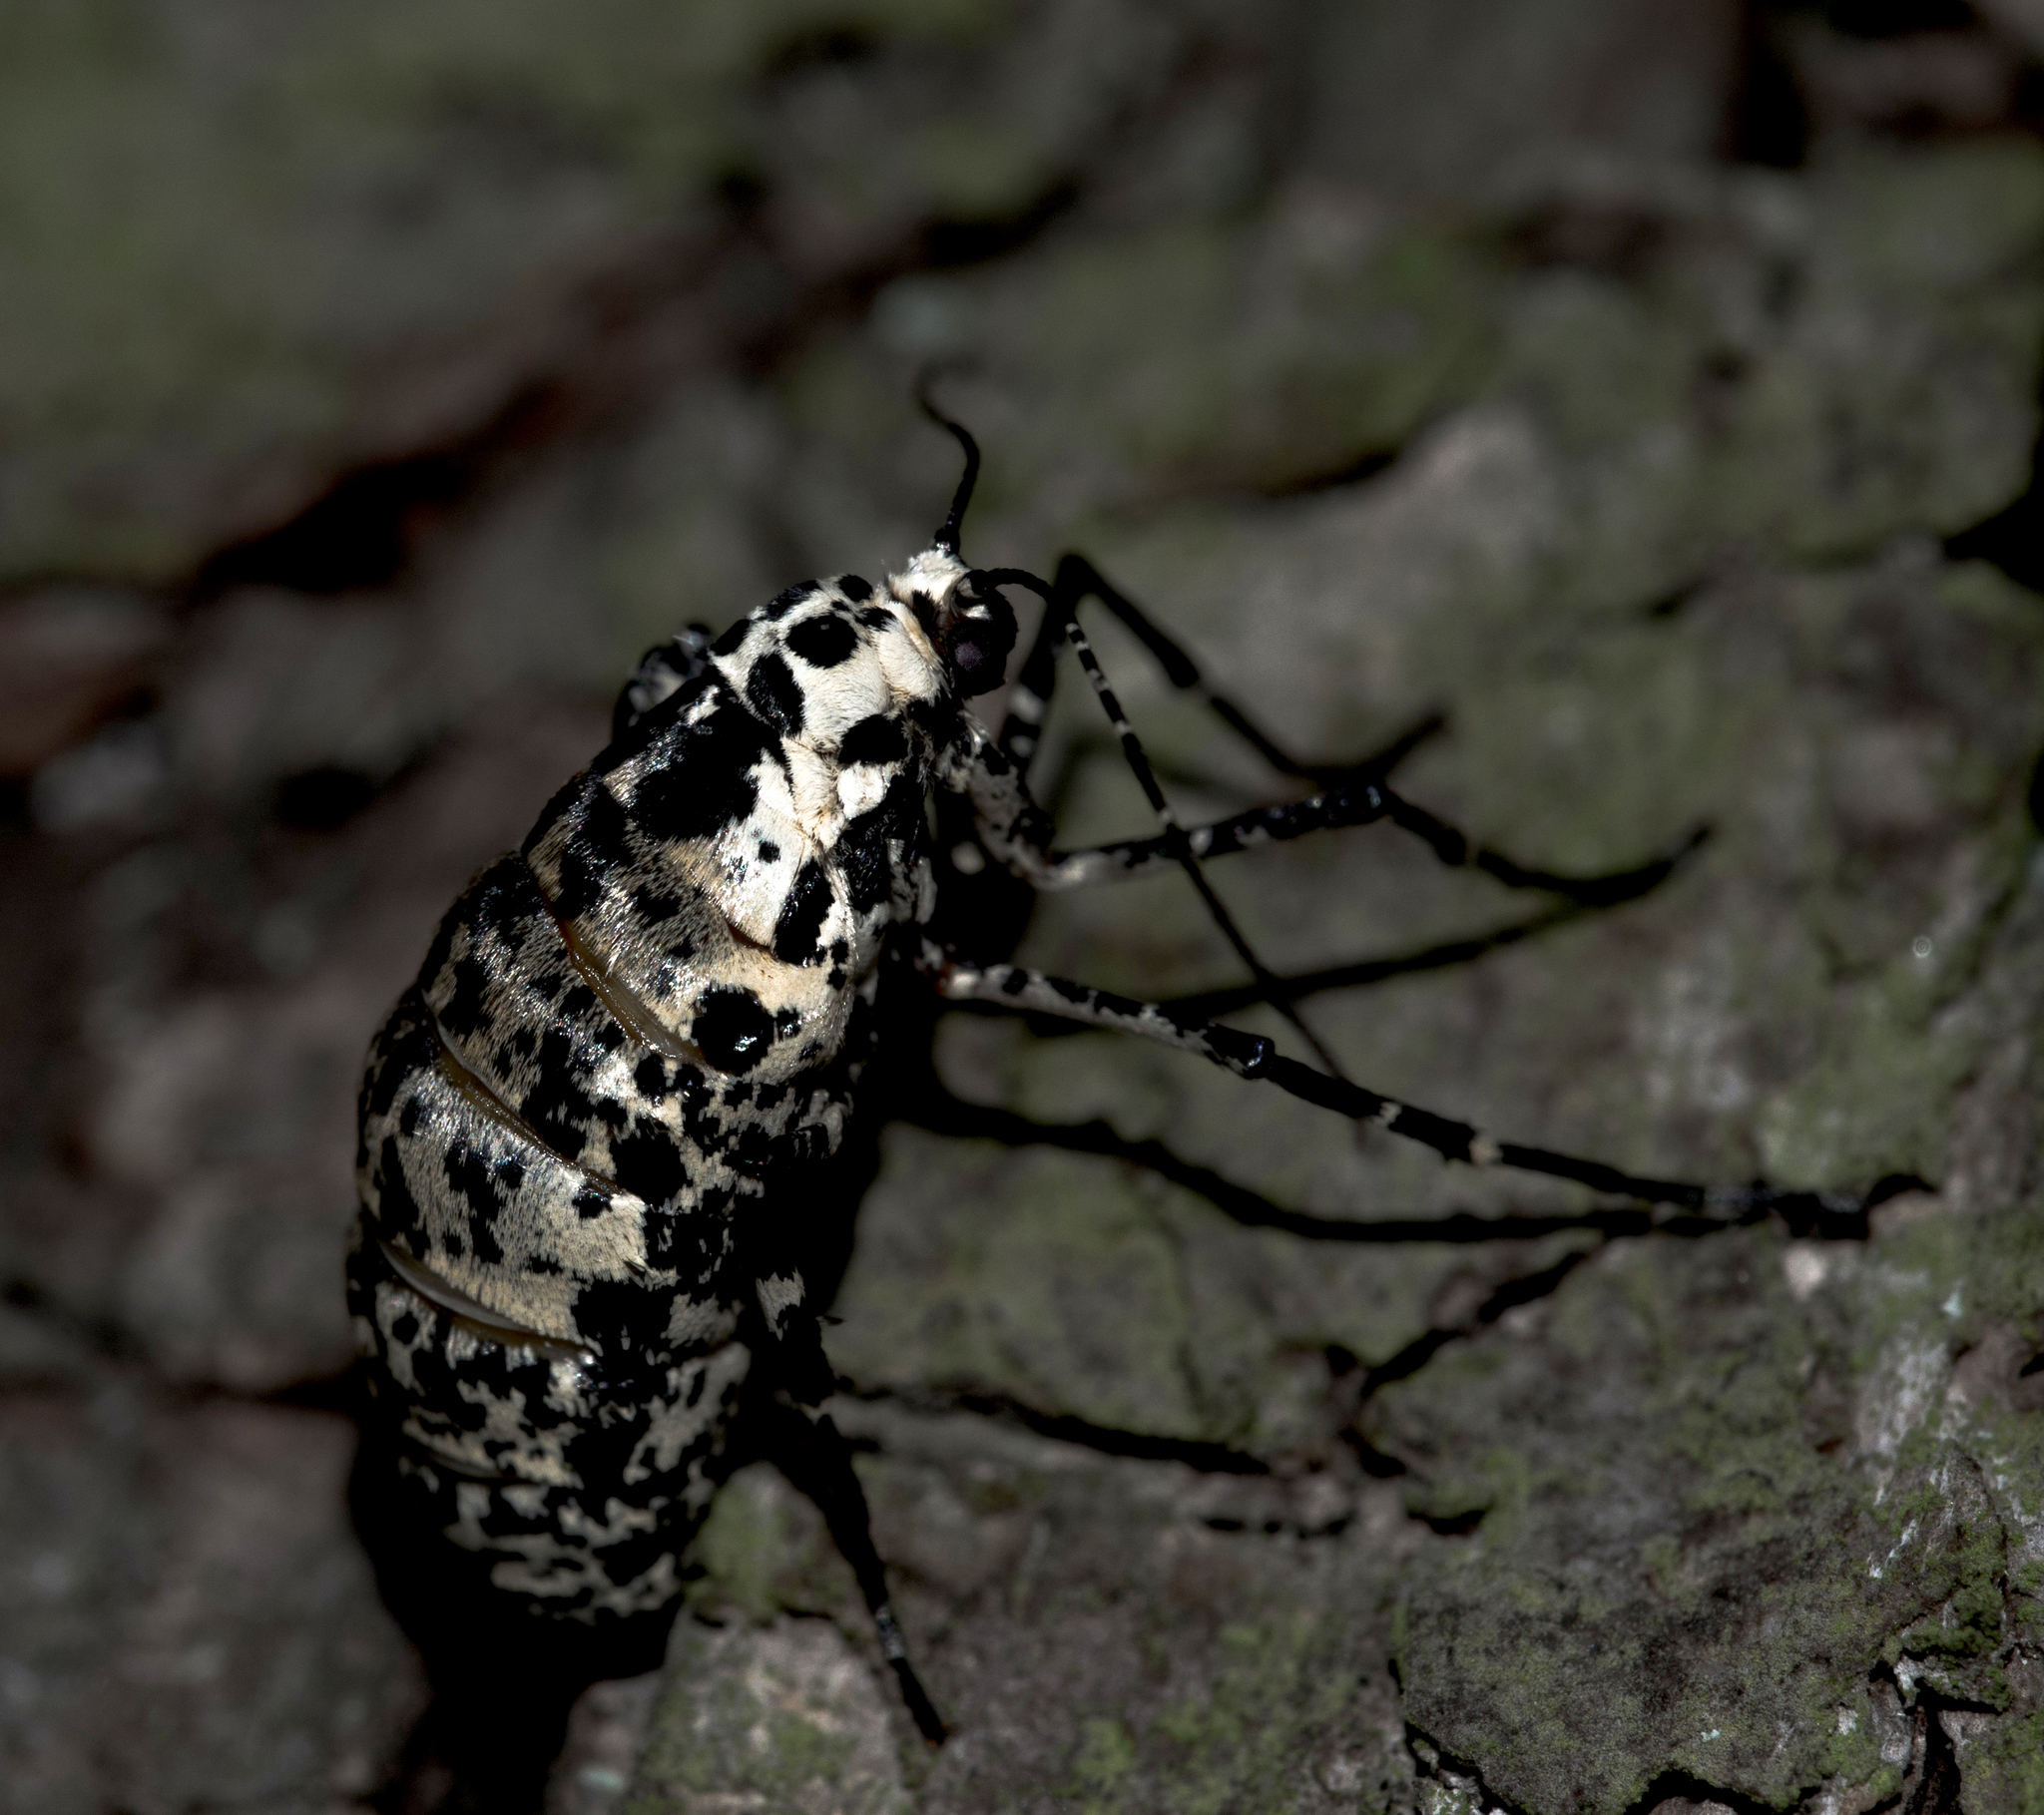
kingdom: Animalia
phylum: Arthropoda
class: Insecta
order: Lepidoptera
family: Geometridae
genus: Erannis
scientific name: Erannis defoliaria
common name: Mottled umber
